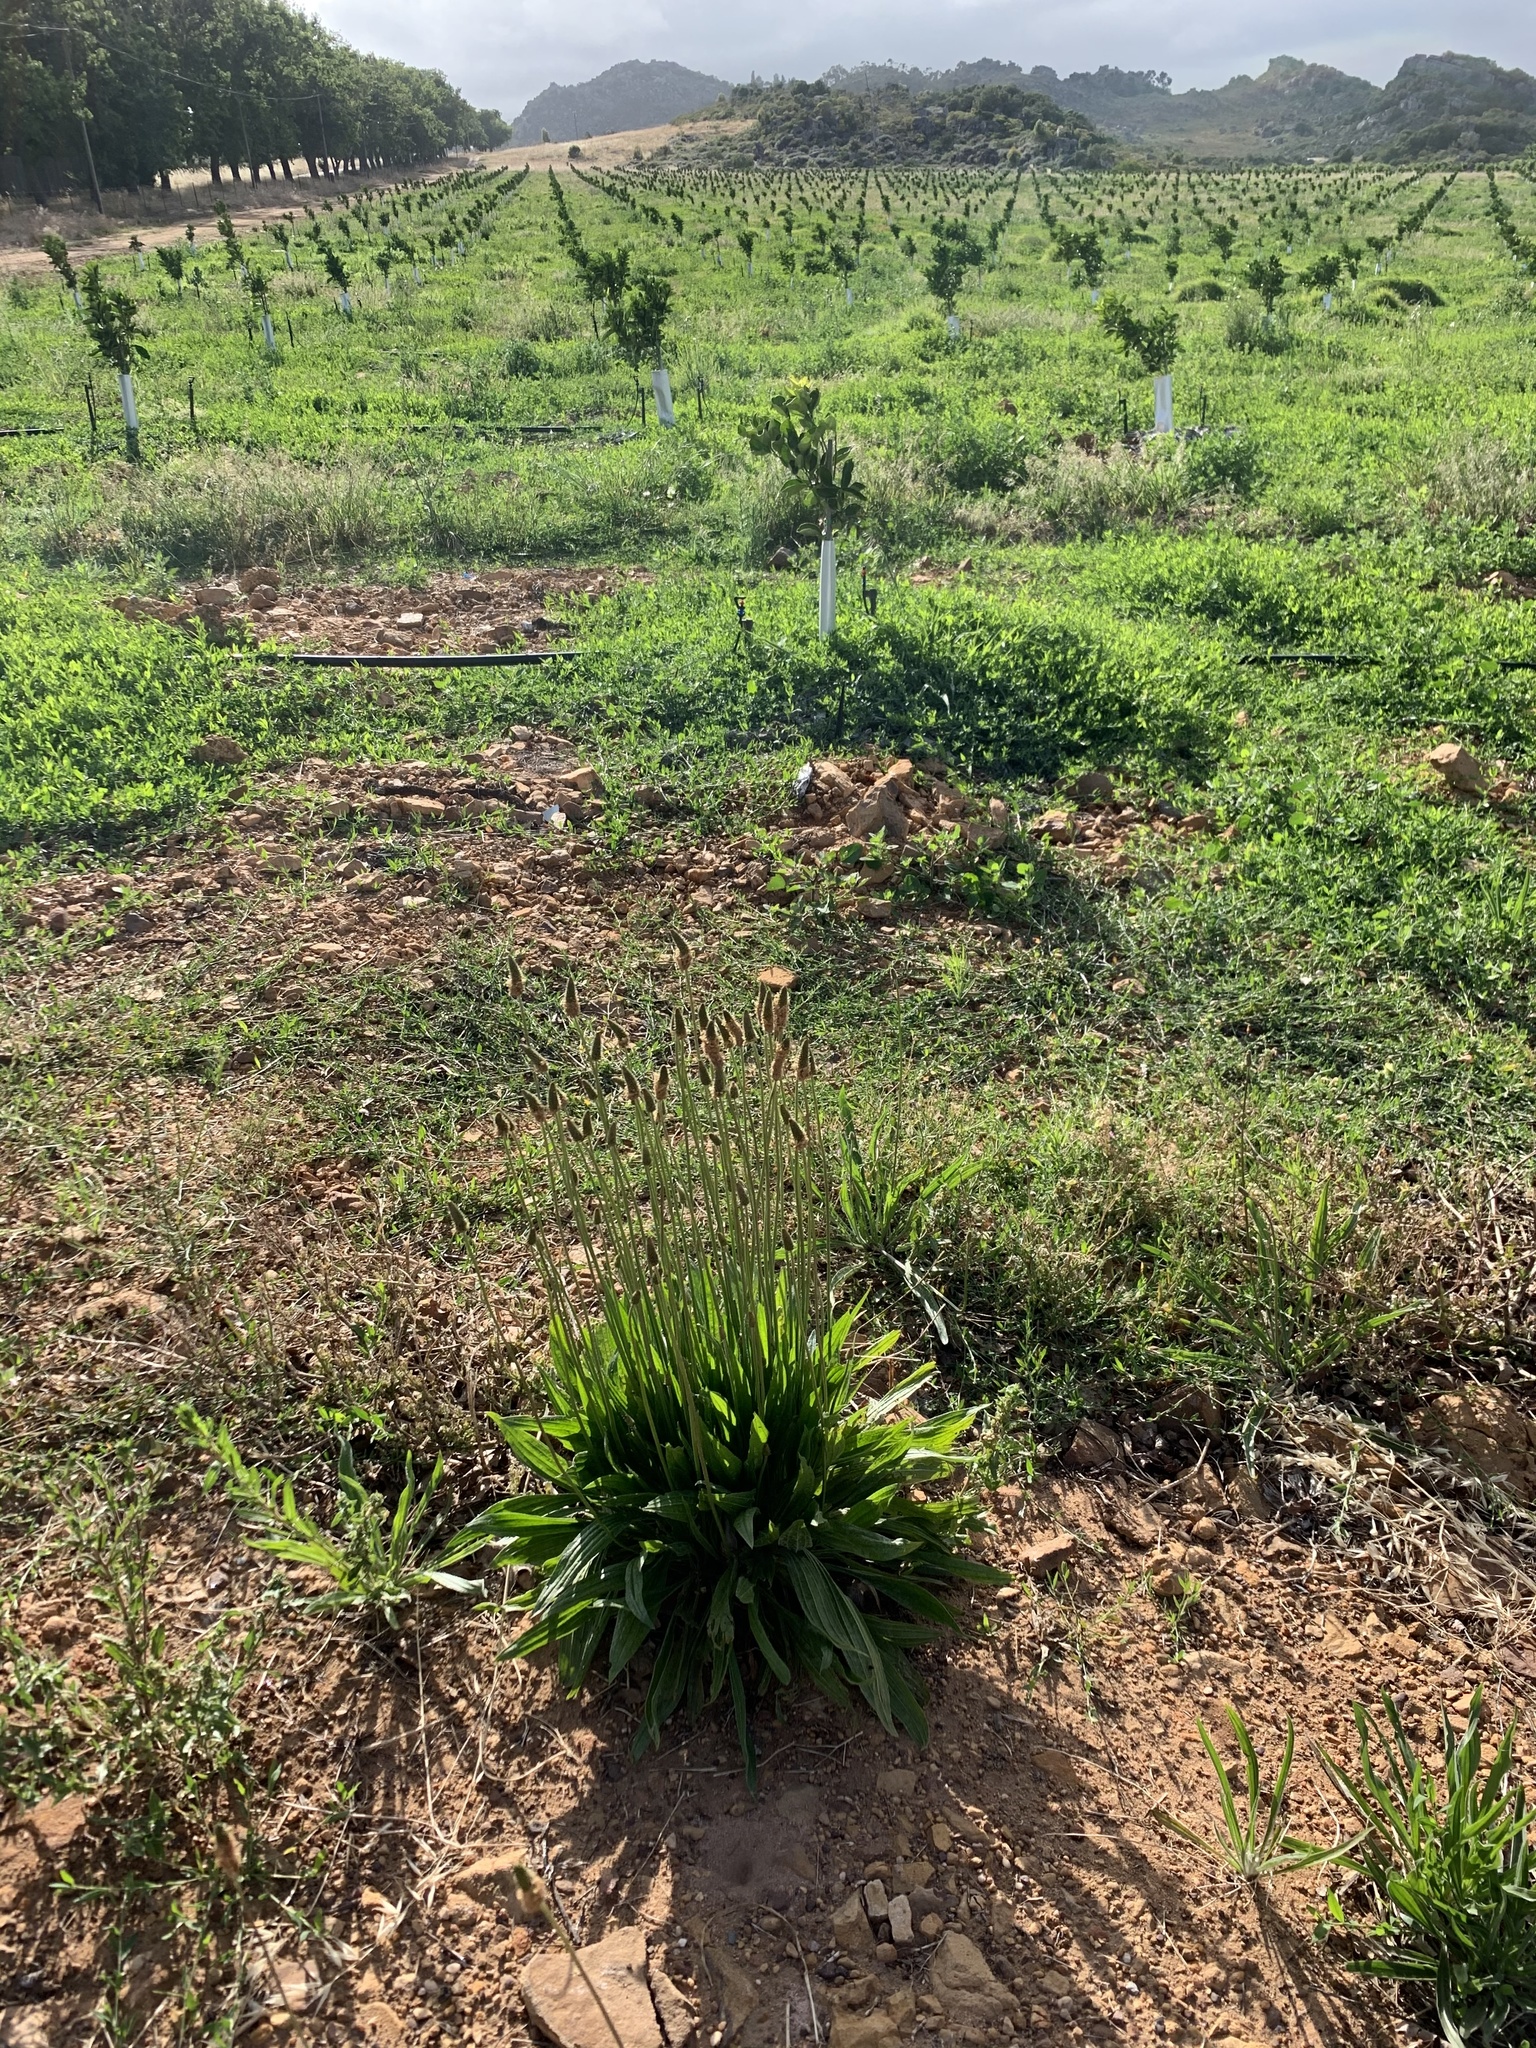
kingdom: Plantae
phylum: Tracheophyta
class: Magnoliopsida
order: Lamiales
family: Plantaginaceae
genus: Plantago
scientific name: Plantago lanceolata
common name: Ribwort plantain
